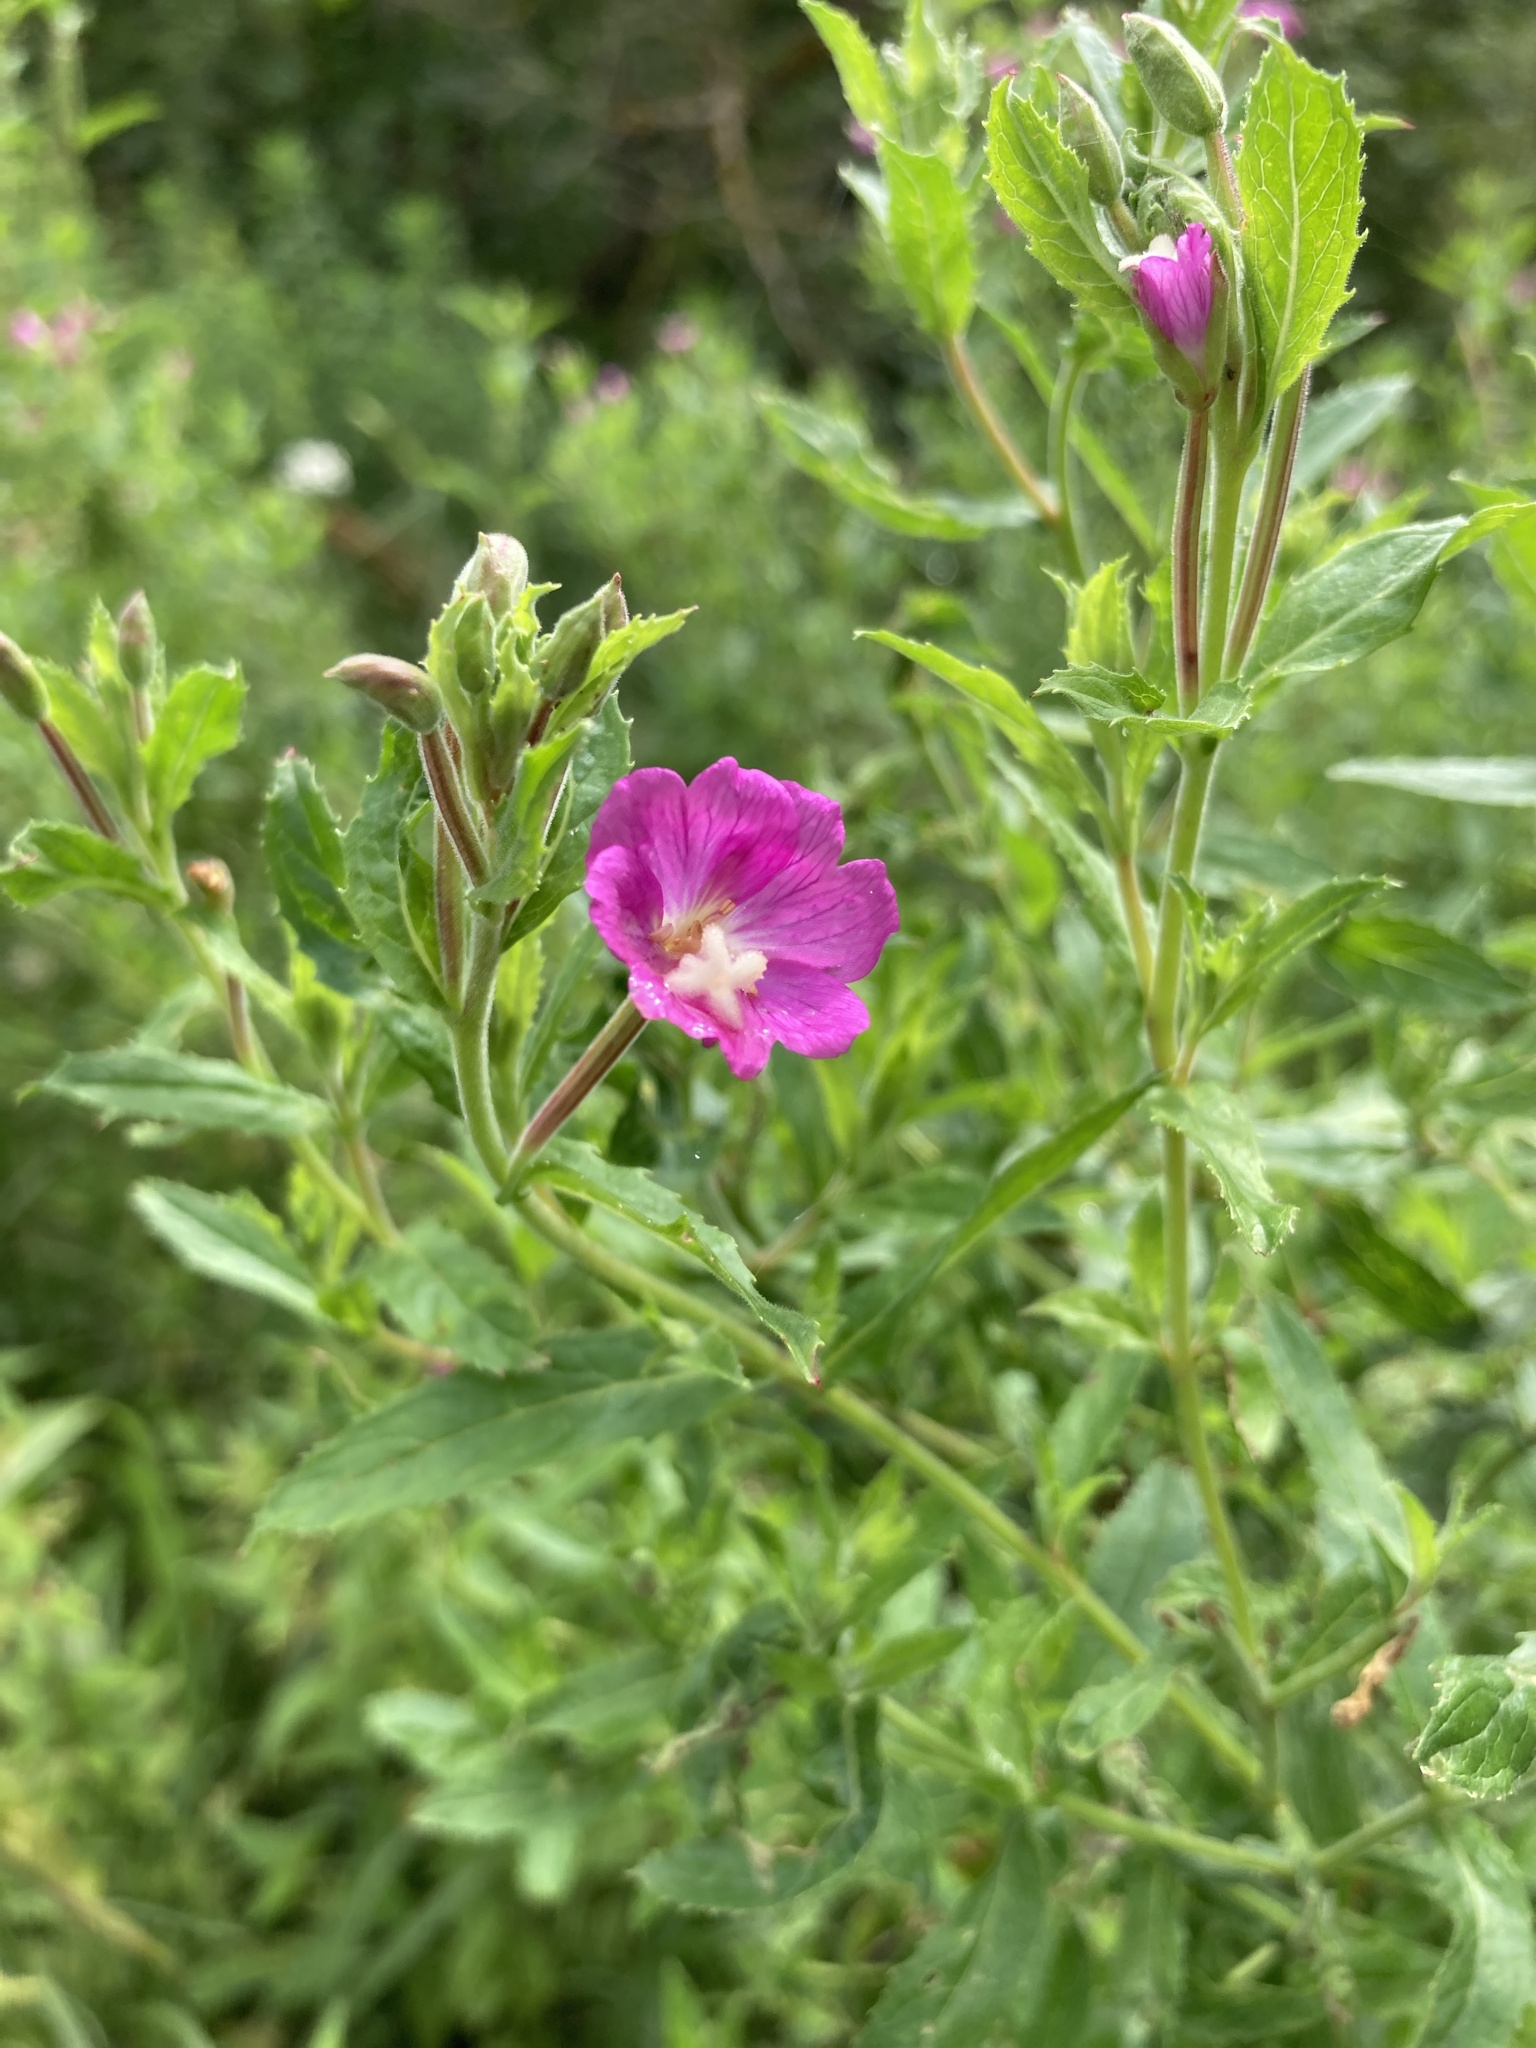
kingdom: Plantae
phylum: Tracheophyta
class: Magnoliopsida
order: Myrtales
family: Onagraceae
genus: Epilobium
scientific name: Epilobium hirsutum
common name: Great willowherb
